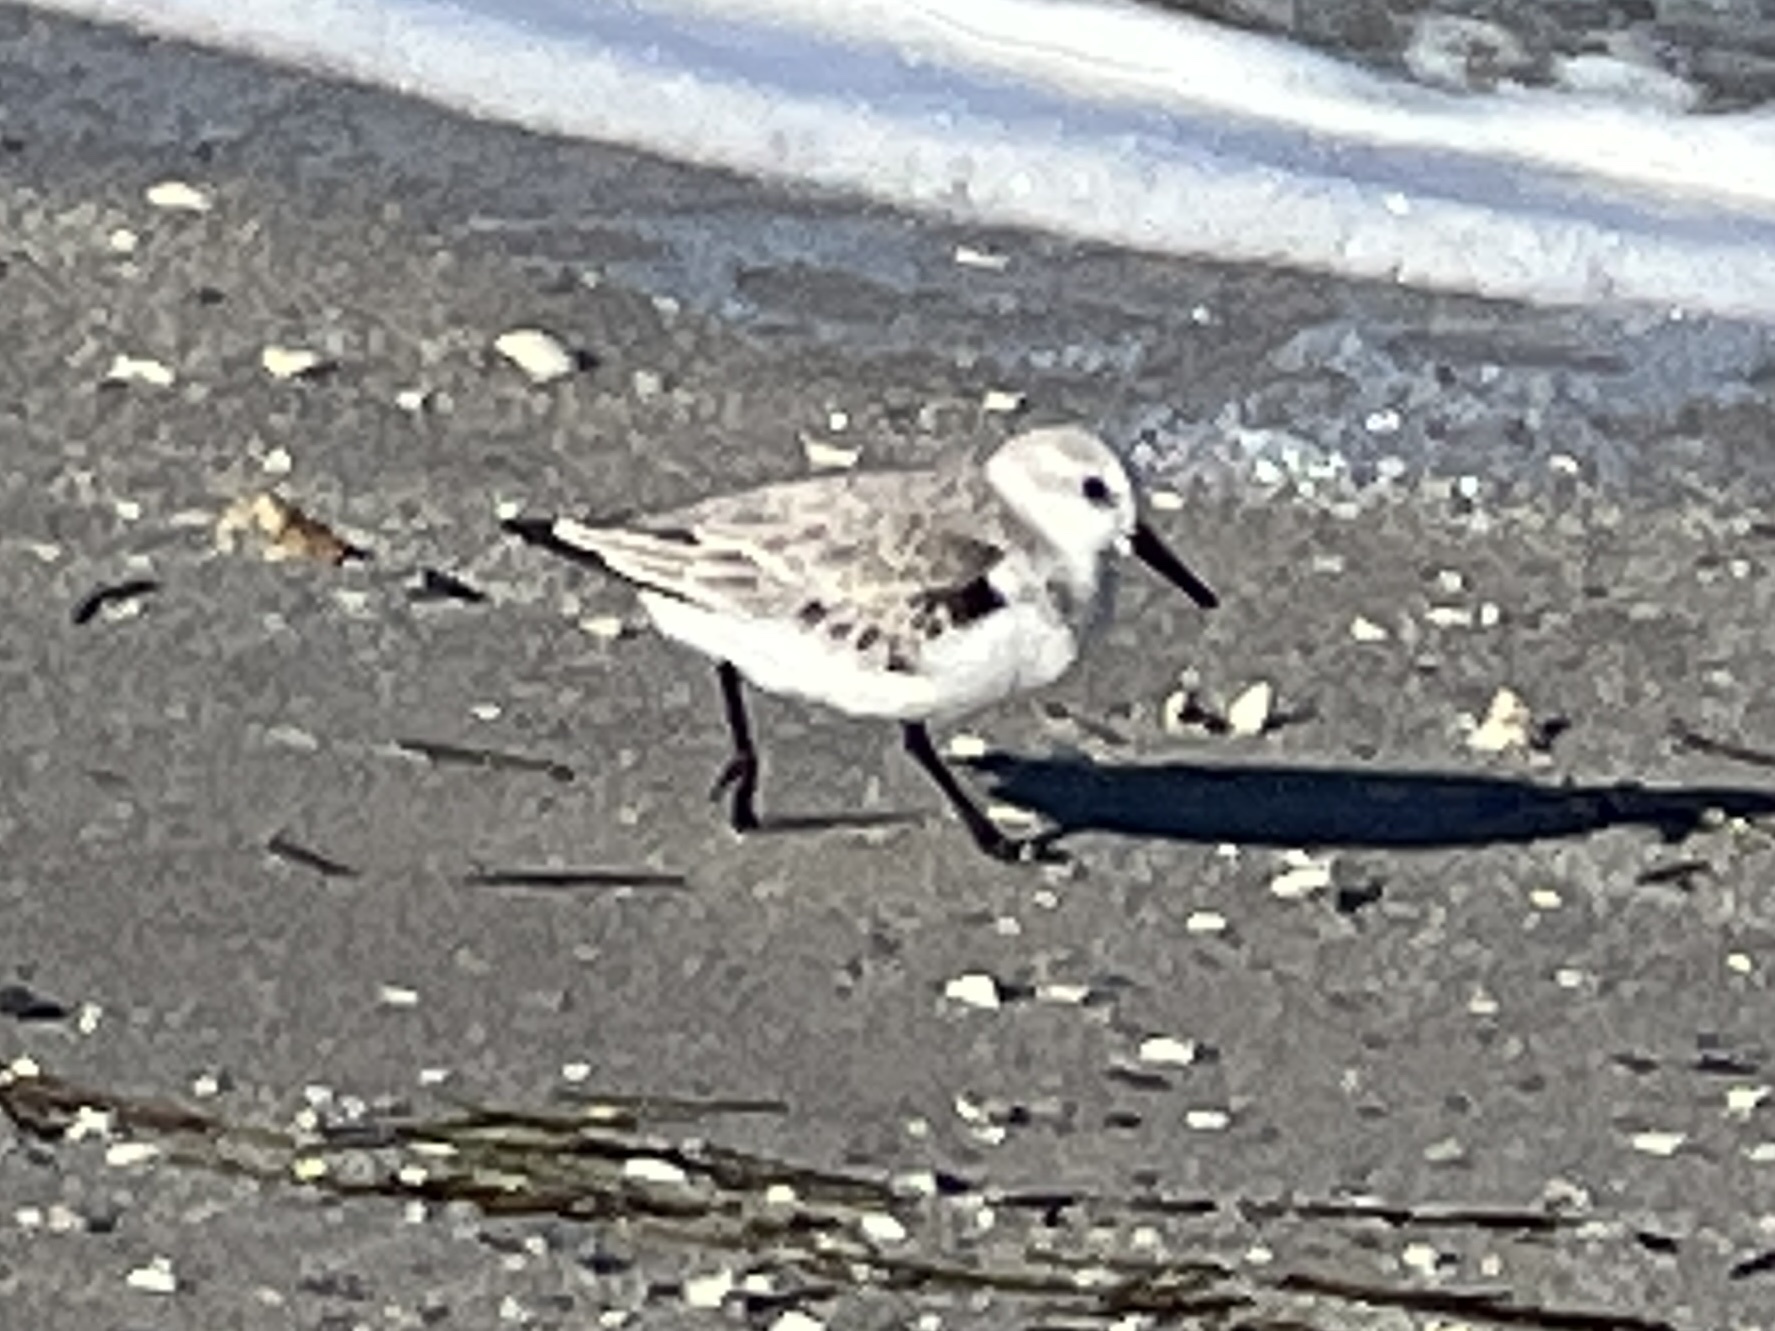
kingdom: Animalia
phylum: Chordata
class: Aves
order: Charadriiformes
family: Scolopacidae
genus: Calidris
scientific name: Calidris alba
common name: Sanderling
